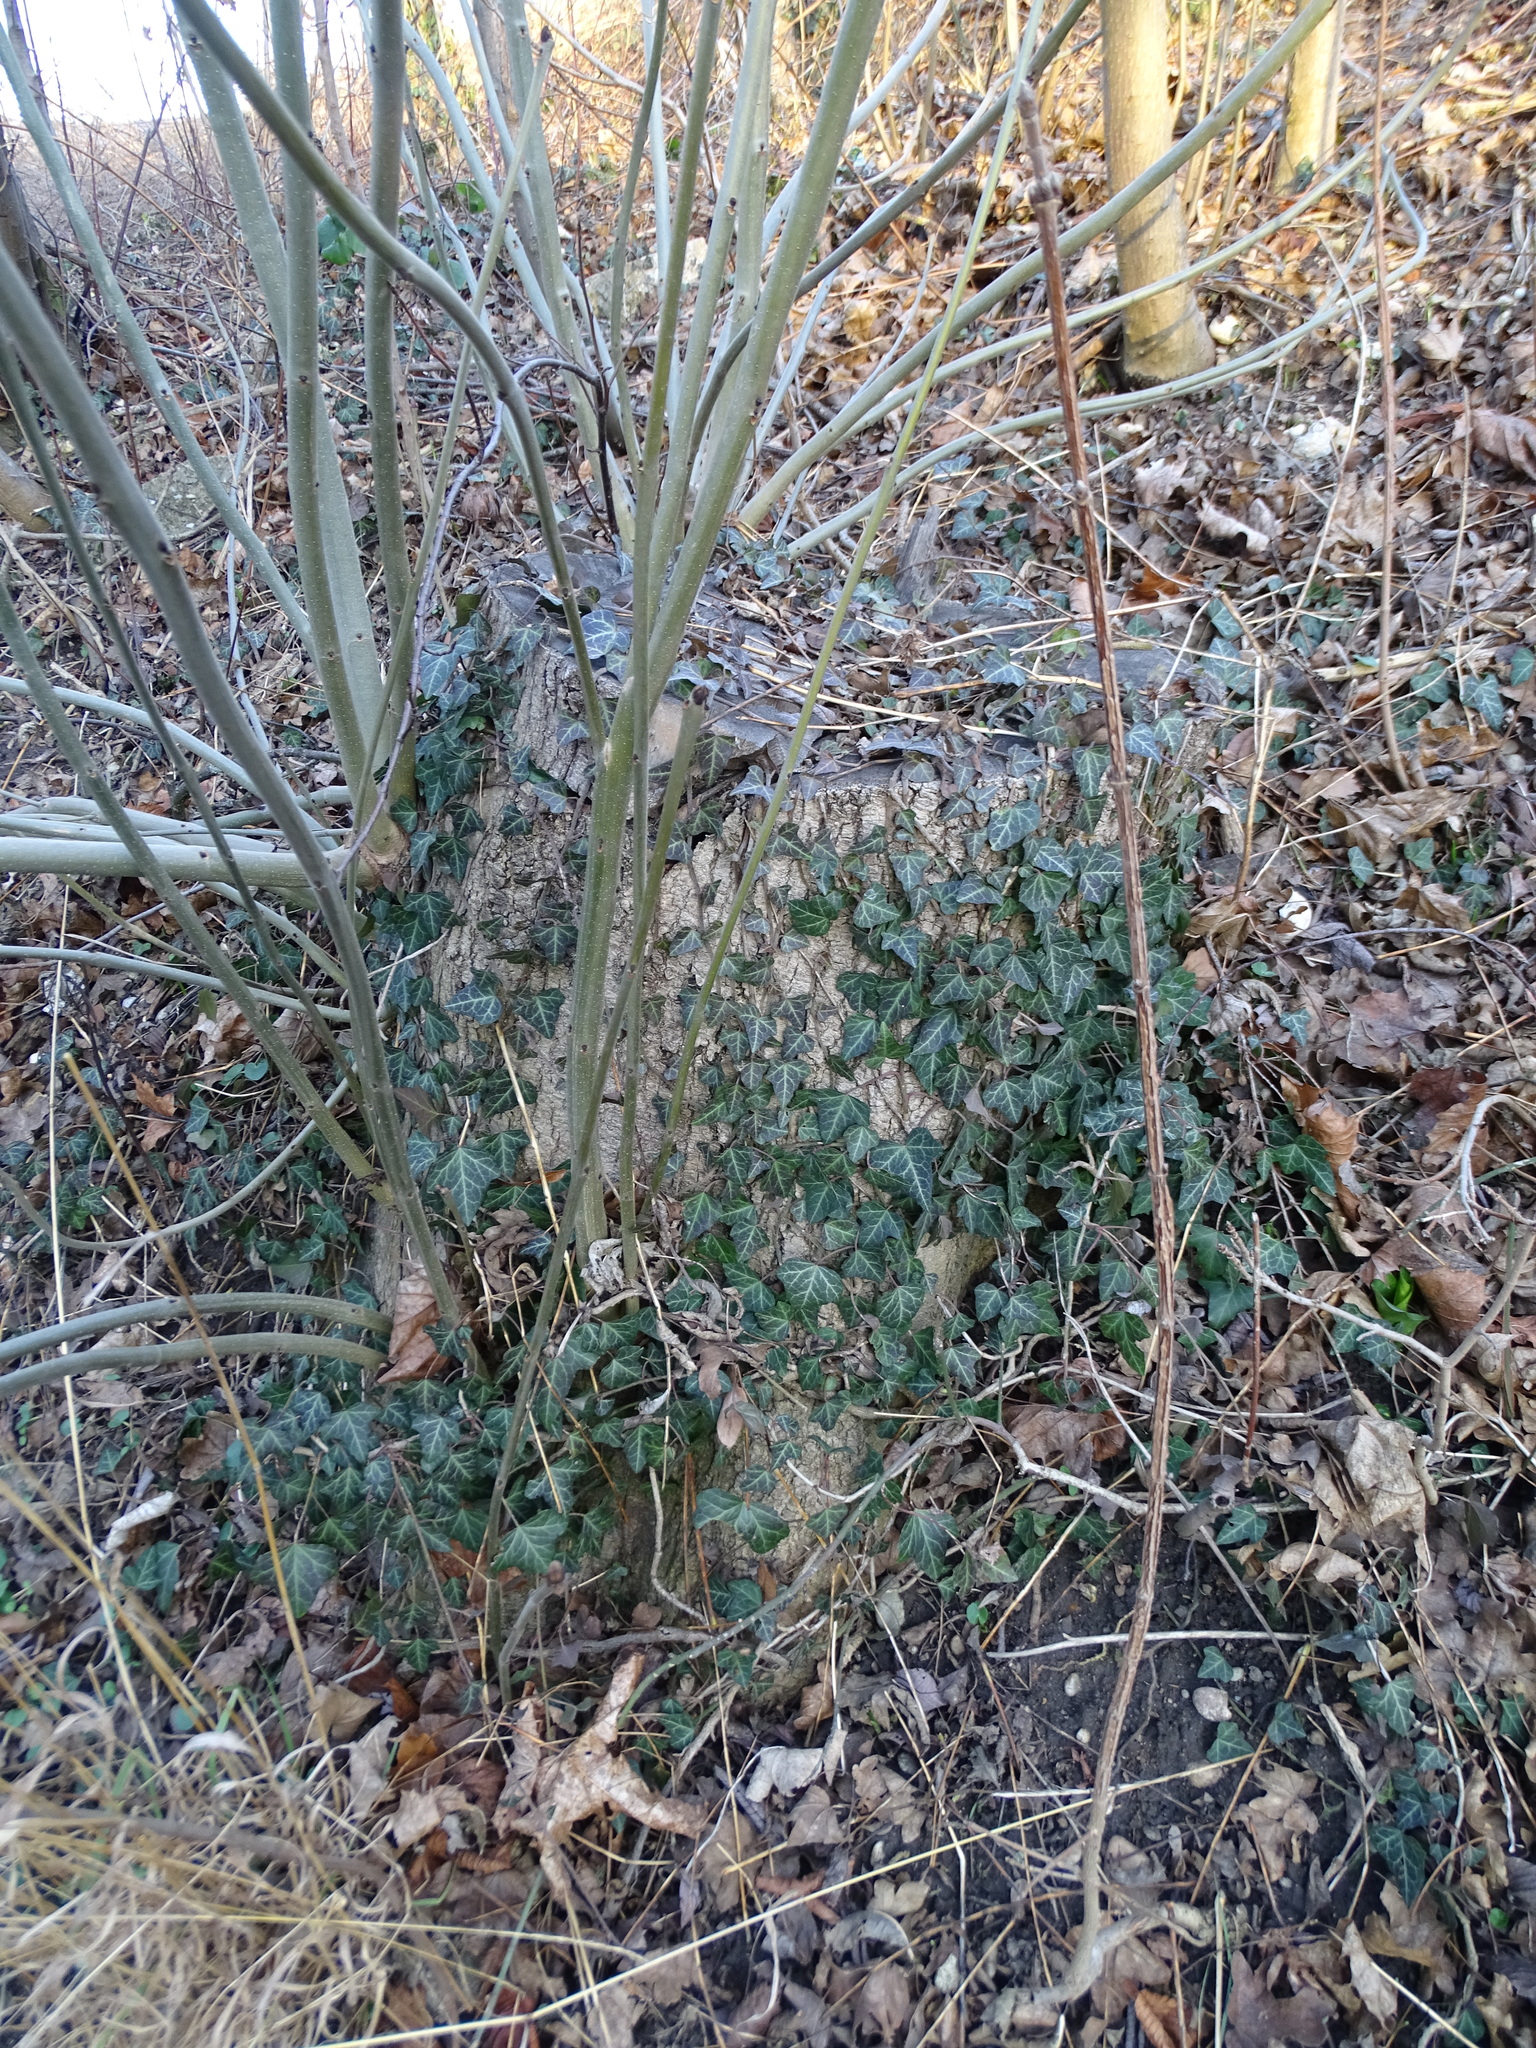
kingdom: Plantae
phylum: Tracheophyta
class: Magnoliopsida
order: Apiales
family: Araliaceae
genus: Hedera
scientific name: Hedera helix
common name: Ivy
